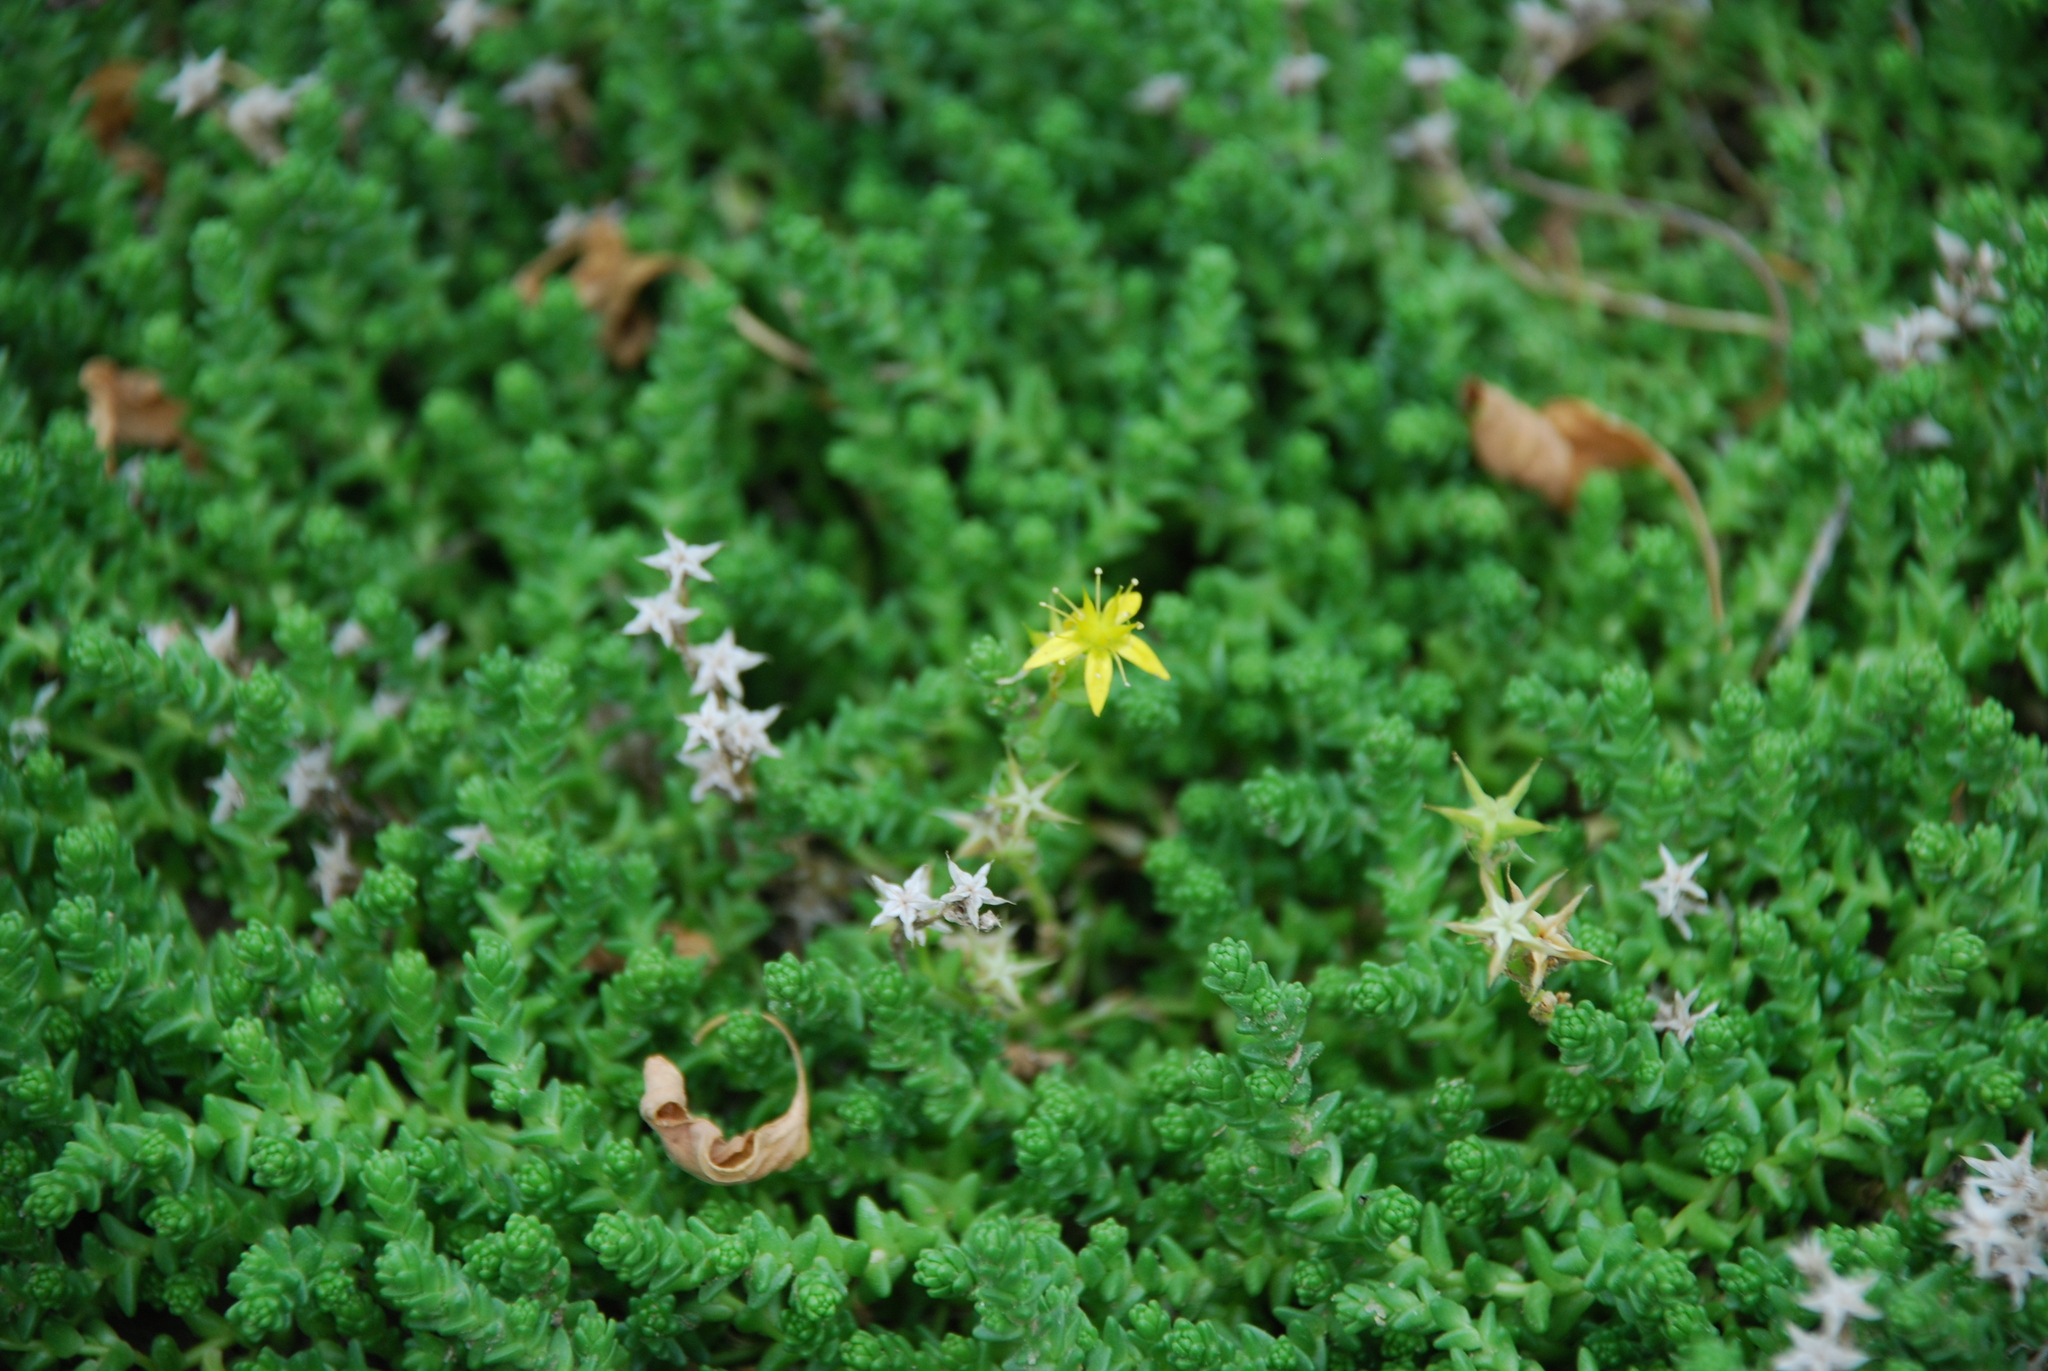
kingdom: Plantae
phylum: Tracheophyta
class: Magnoliopsida
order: Saxifragales
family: Crassulaceae
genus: Sedum
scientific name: Sedum acre
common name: Biting stonecrop
